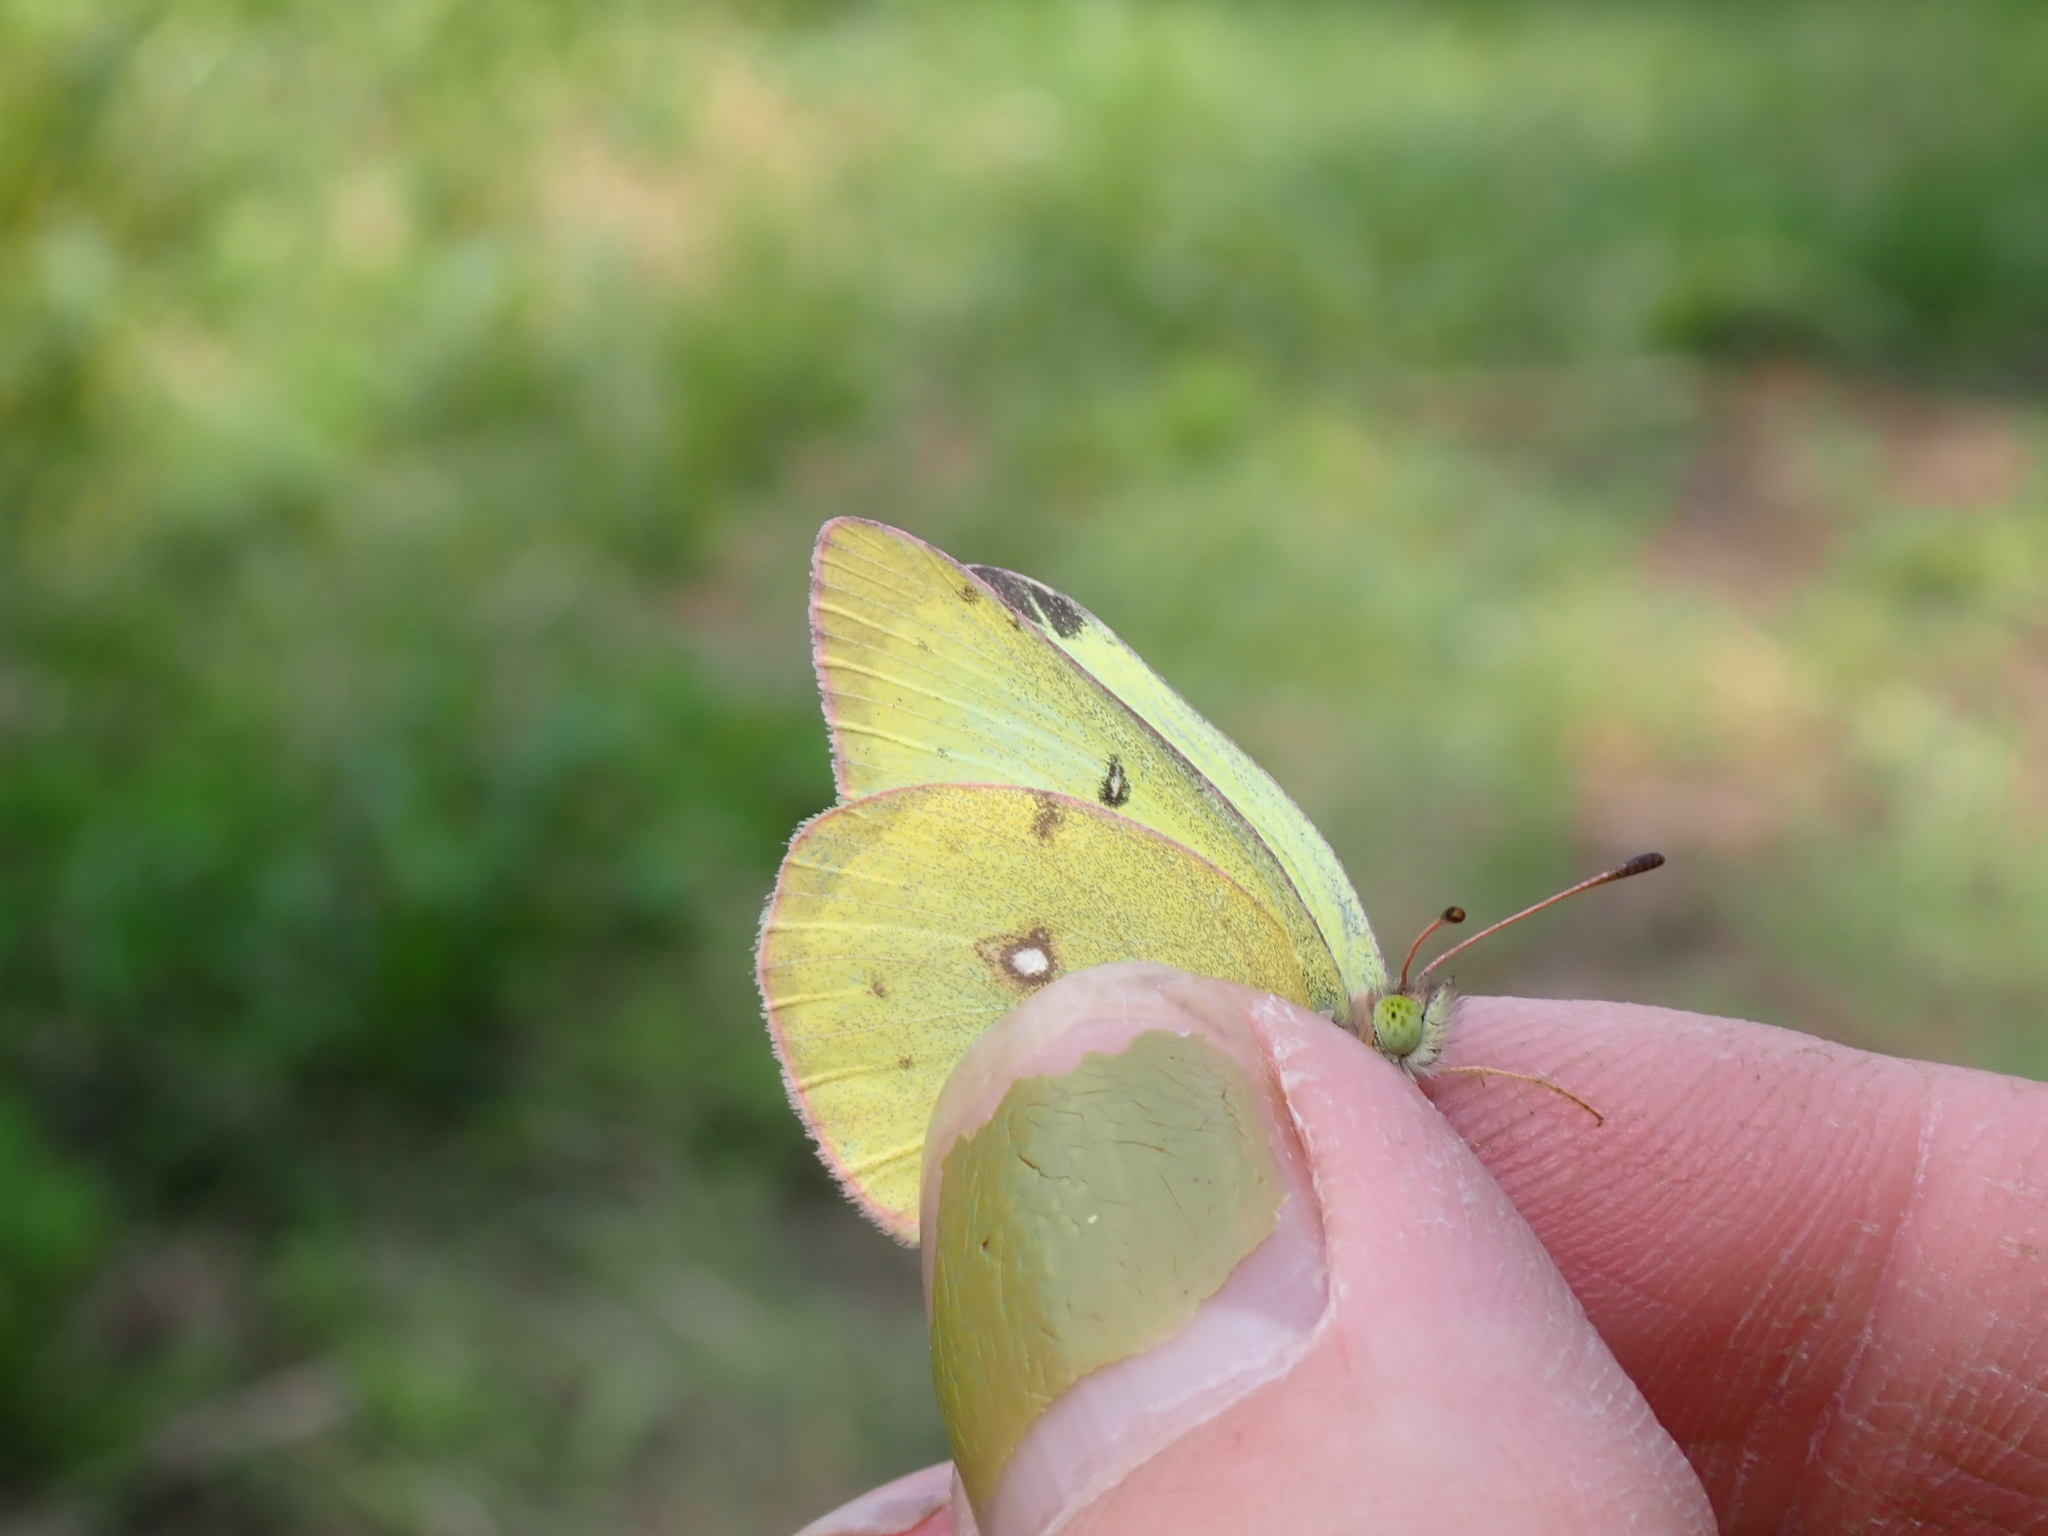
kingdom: Animalia
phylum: Arthropoda
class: Insecta
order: Lepidoptera
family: Pieridae
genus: Colias
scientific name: Colias philodice
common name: Clouded sulphur
